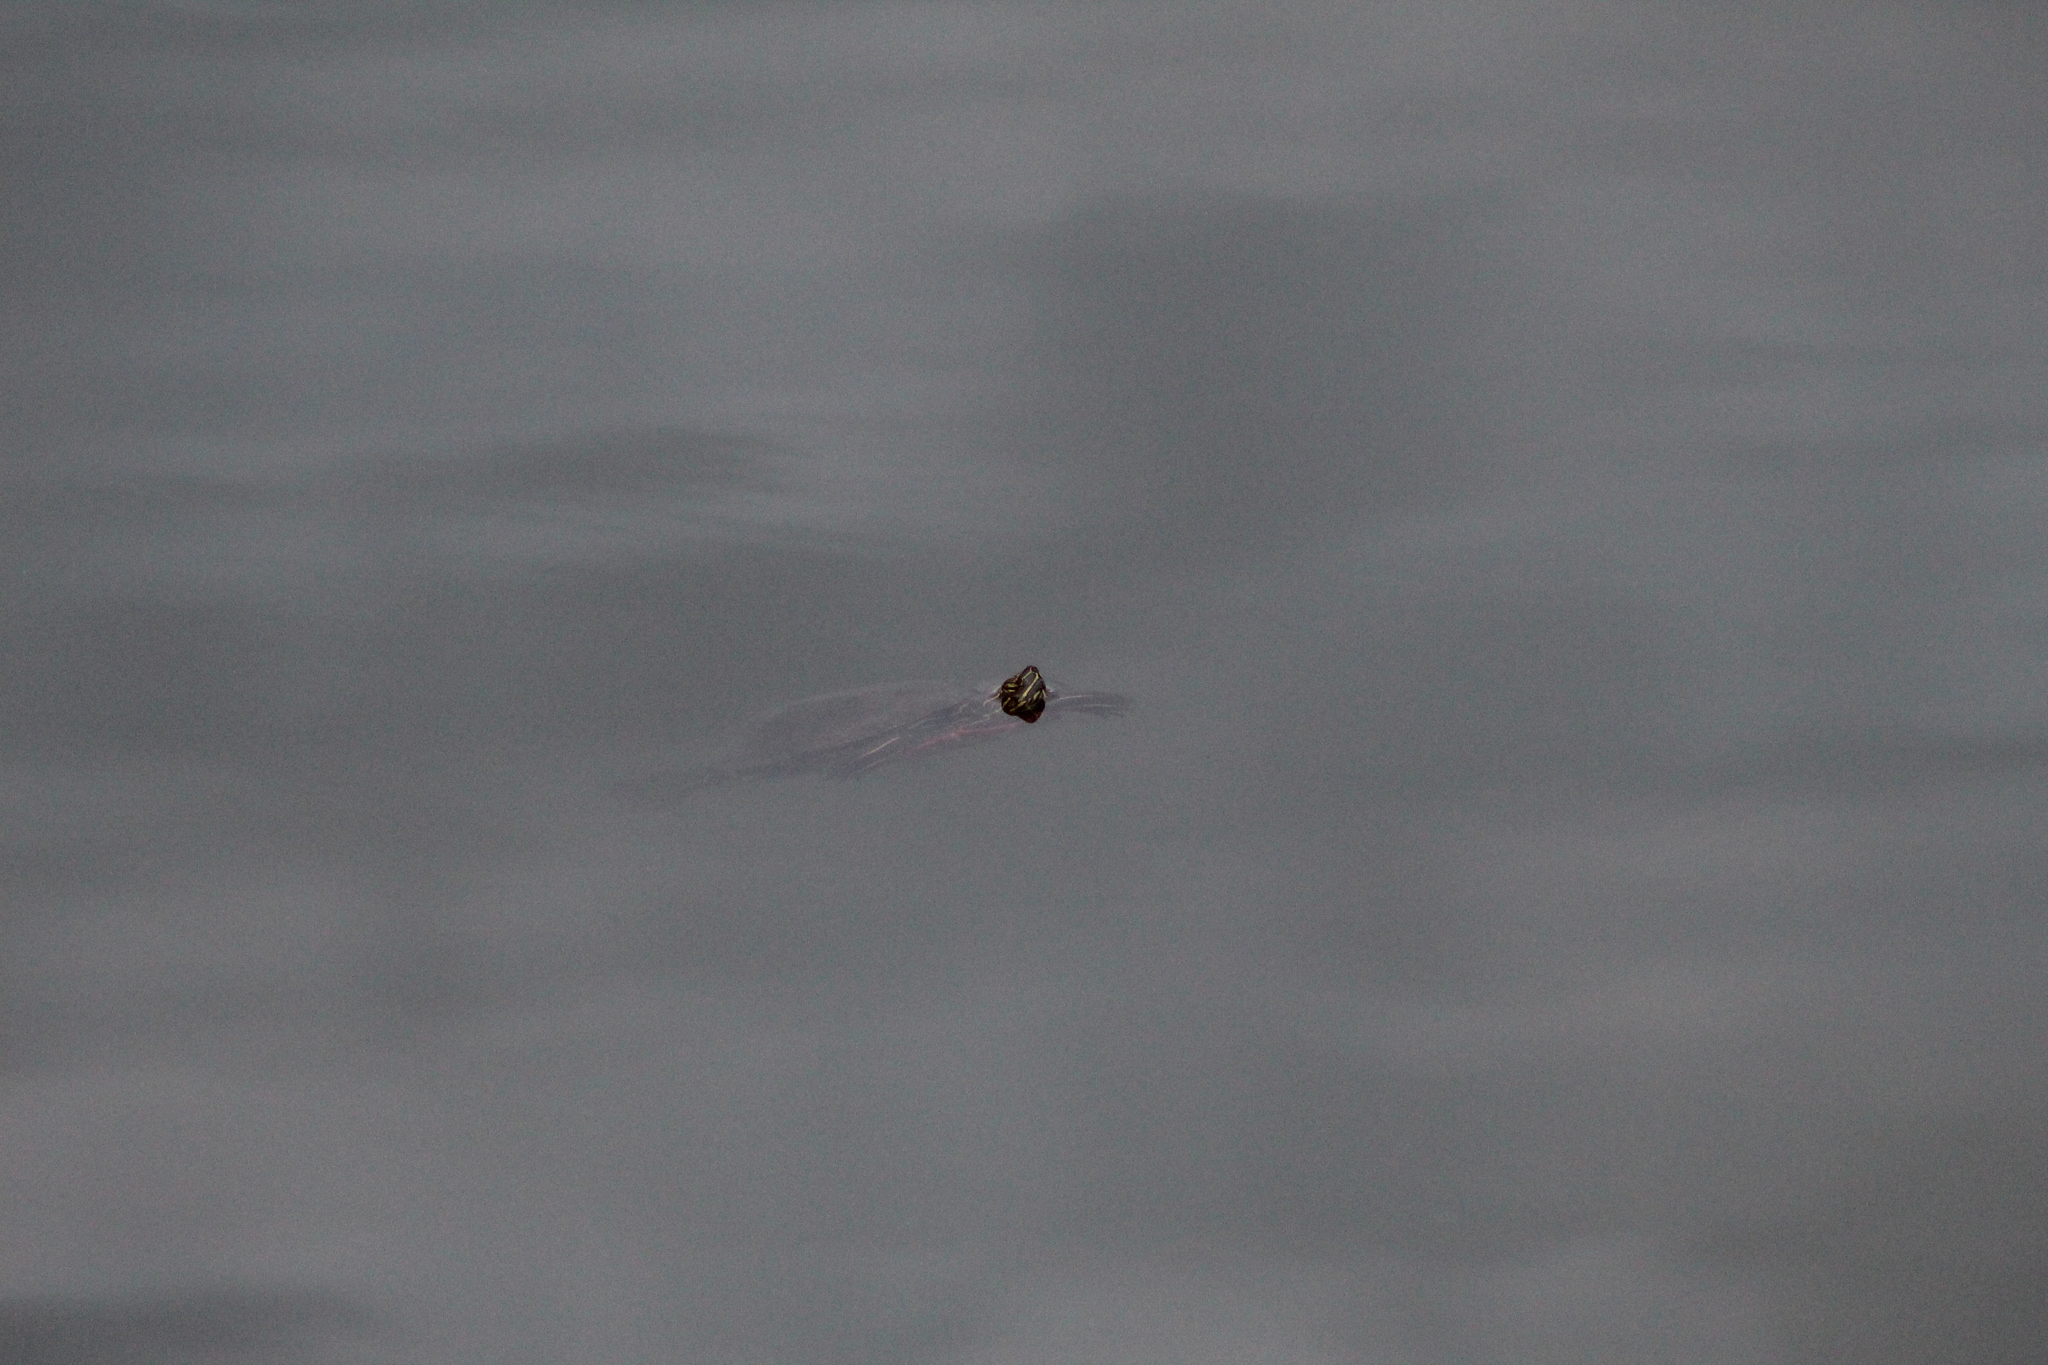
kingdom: Animalia
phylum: Chordata
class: Testudines
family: Emydidae
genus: Chrysemys
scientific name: Chrysemys picta
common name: Painted turtle
